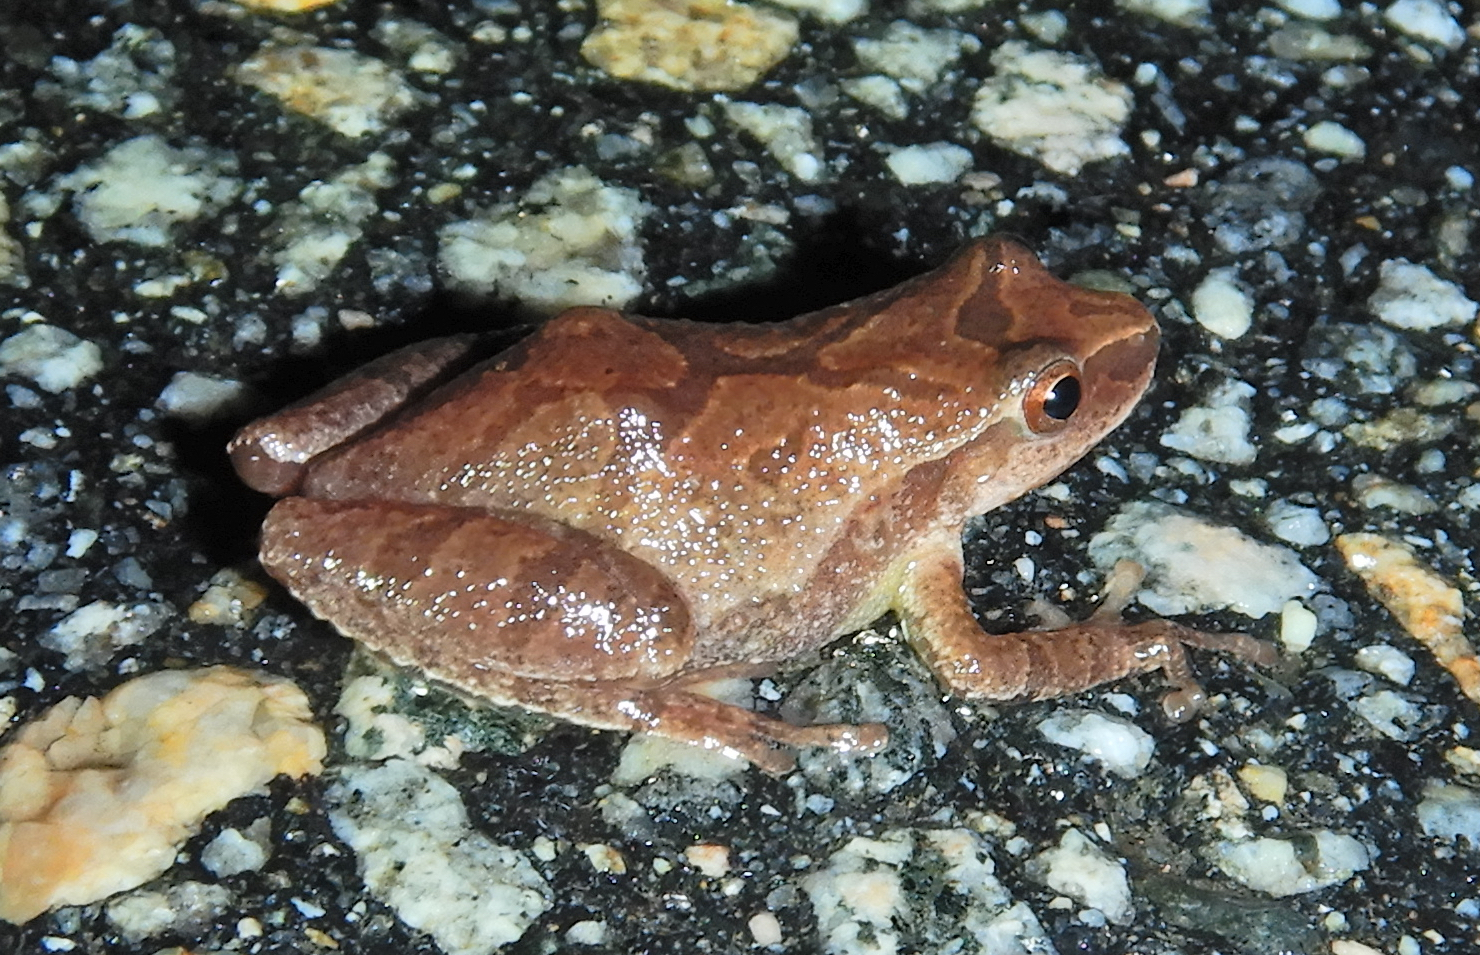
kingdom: Animalia
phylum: Chordata
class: Amphibia
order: Anura
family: Hylidae
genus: Pseudacris
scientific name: Pseudacris crucifer
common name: Spring peeper
